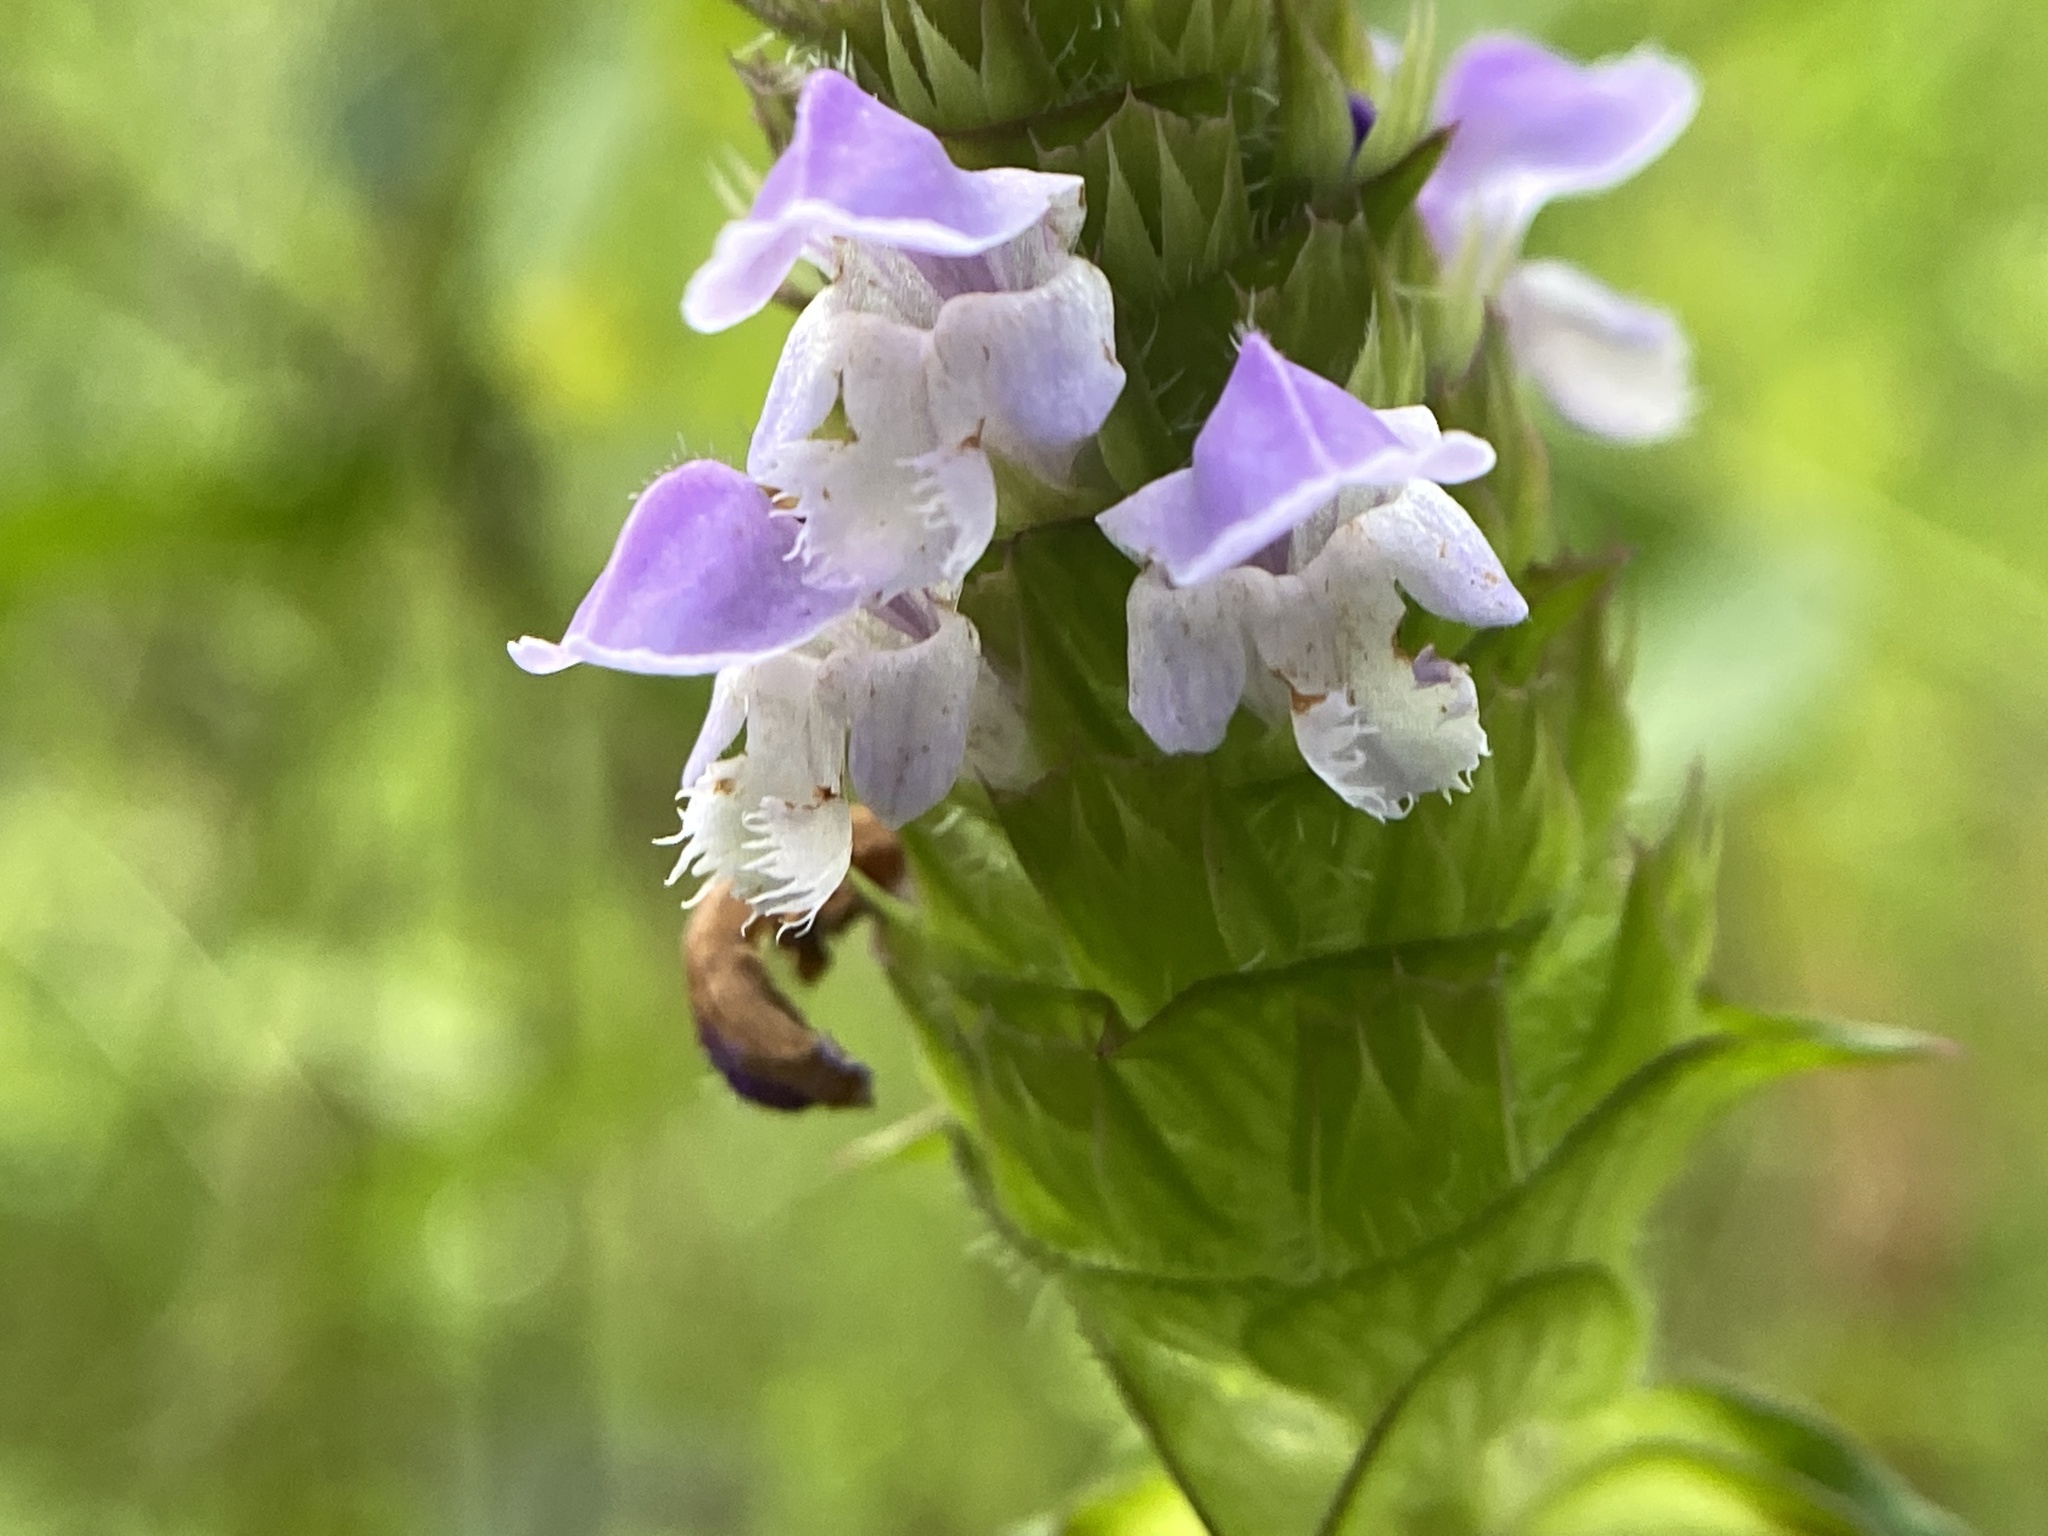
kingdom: Plantae
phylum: Tracheophyta
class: Magnoliopsida
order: Lamiales
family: Lamiaceae
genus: Prunella
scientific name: Prunella vulgaris
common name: Heal-all
